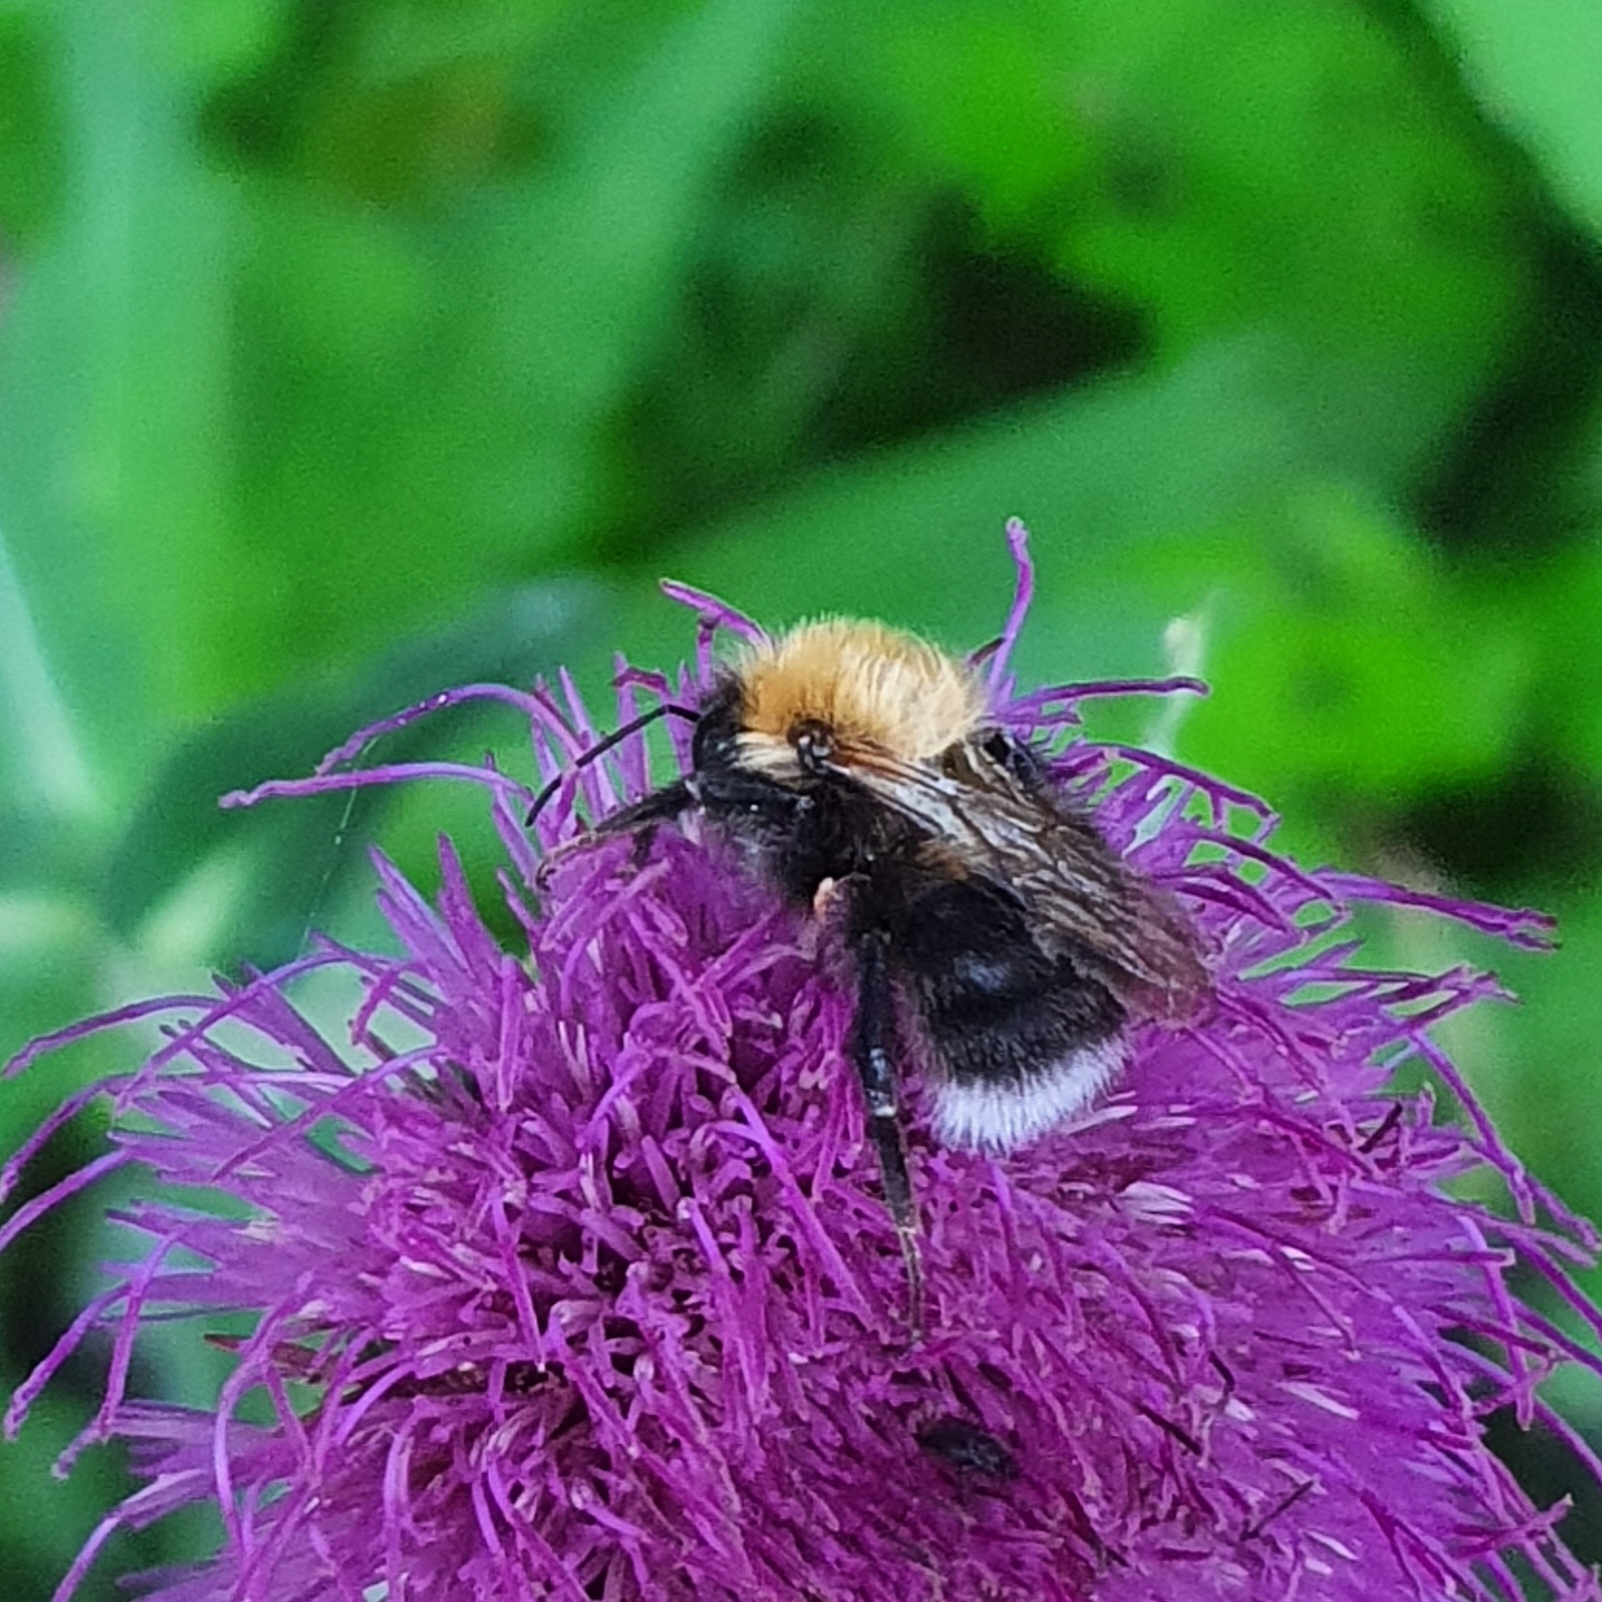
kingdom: Animalia
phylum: Arthropoda
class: Insecta
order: Hymenoptera
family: Apidae
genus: Bombus
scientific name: Bombus hypnorum
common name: New garden bumblebee
